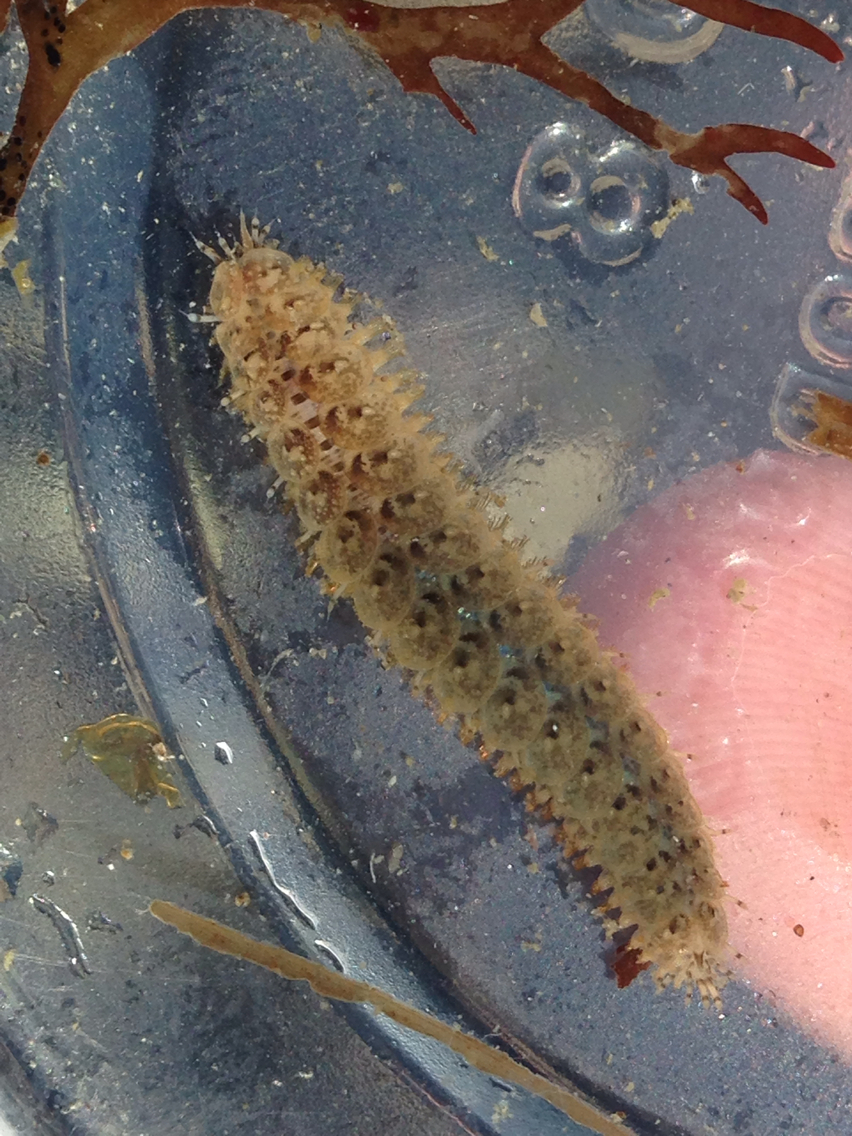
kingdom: Animalia
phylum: Annelida
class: Polychaeta
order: Phyllodocida
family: Polynoidae
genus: Halosydna
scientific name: Halosydna brevisetosa
